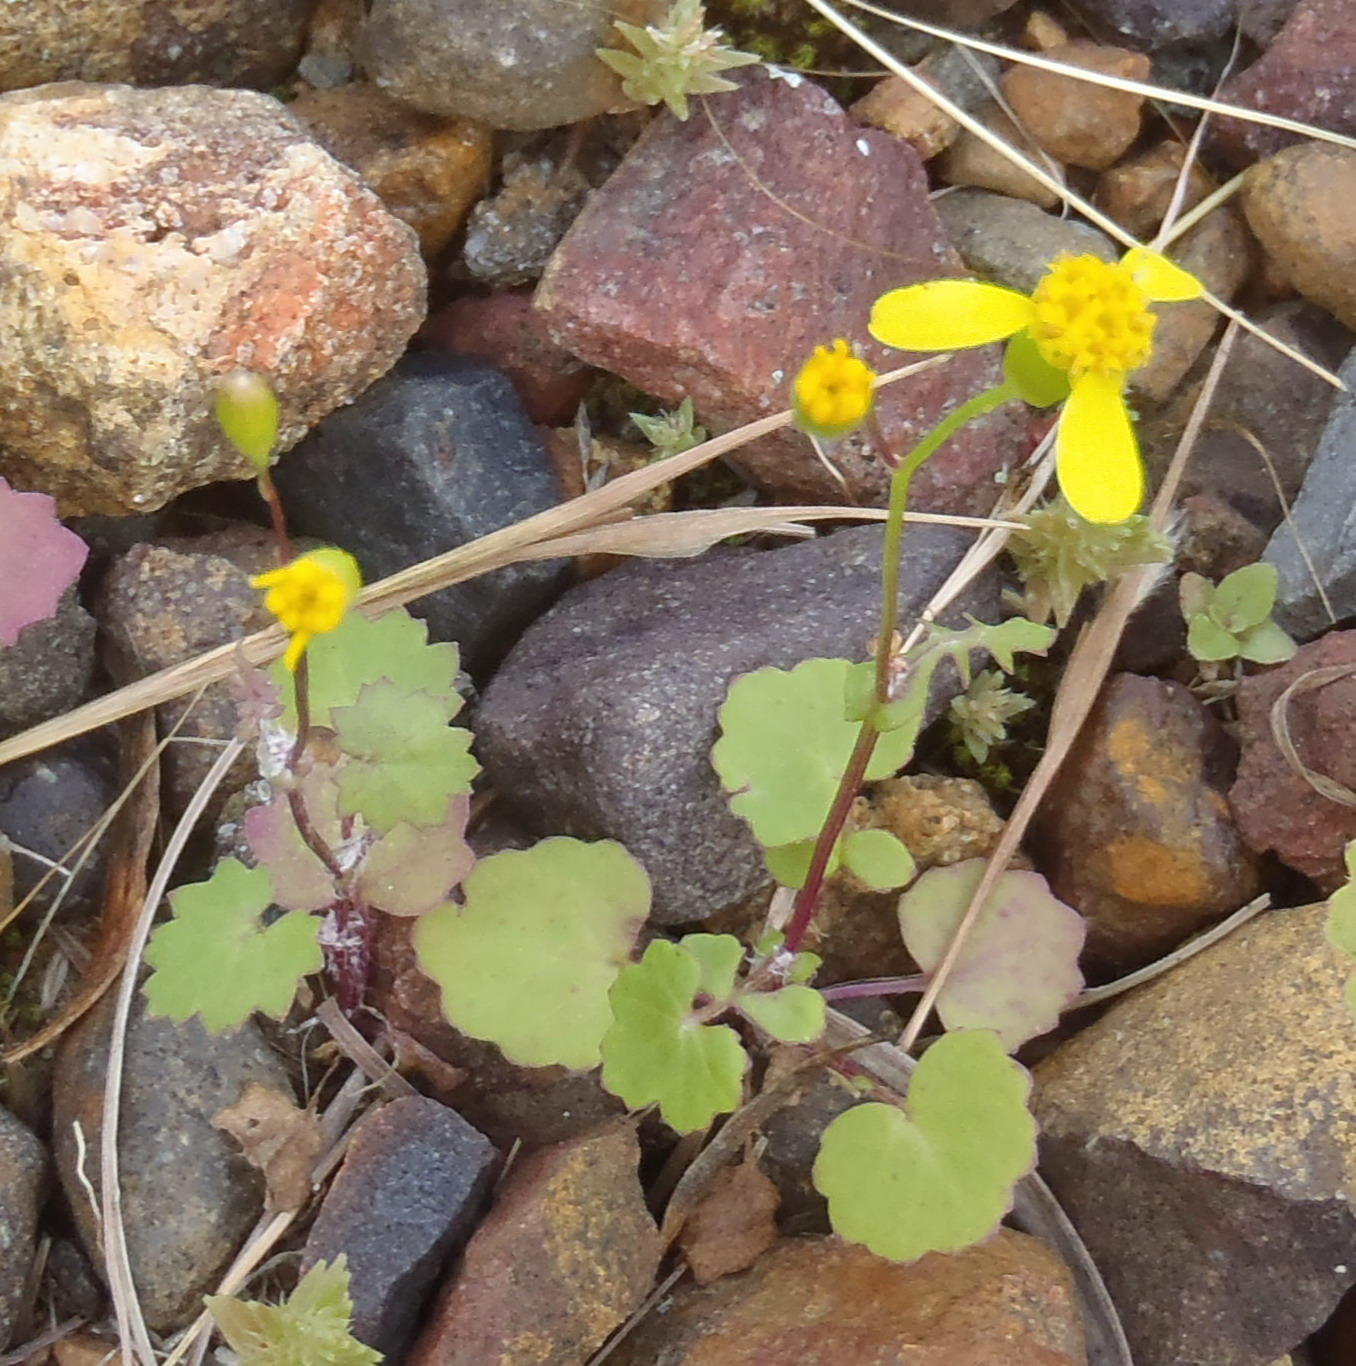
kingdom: Plantae
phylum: Tracheophyta
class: Magnoliopsida
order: Asterales
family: Asteraceae
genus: Cineraria
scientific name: Cineraria platycarpa
